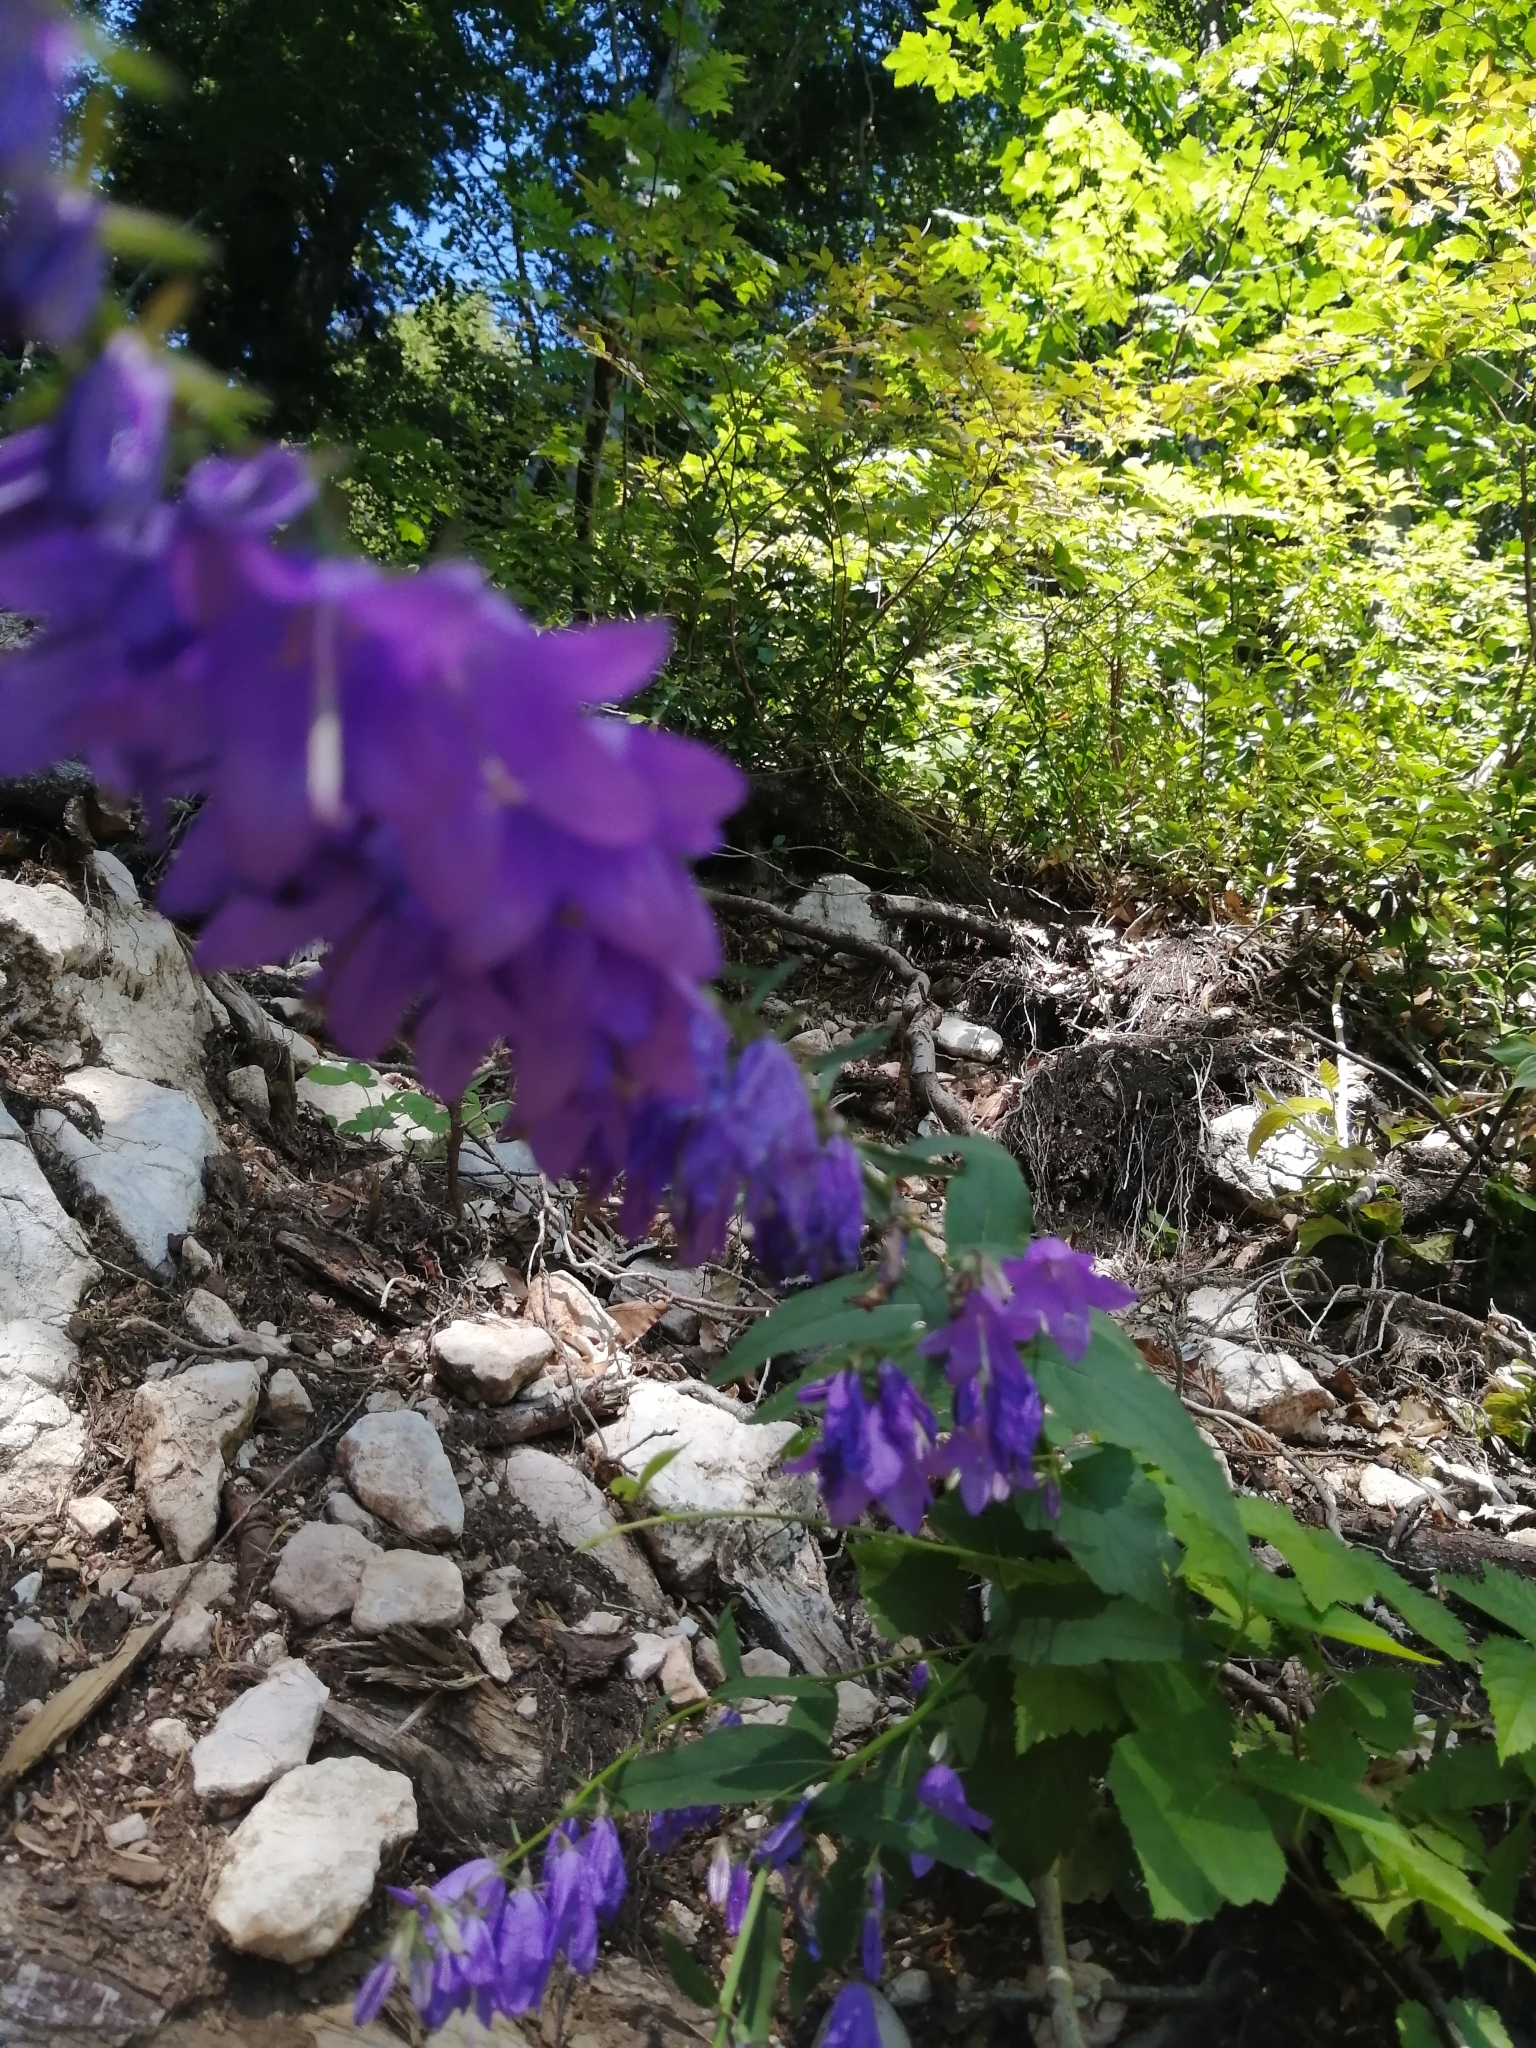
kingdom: Plantae
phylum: Tracheophyta
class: Magnoliopsida
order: Asterales
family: Campanulaceae
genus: Campanula
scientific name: Campanula rapunculoides
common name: Creeping bellflower
